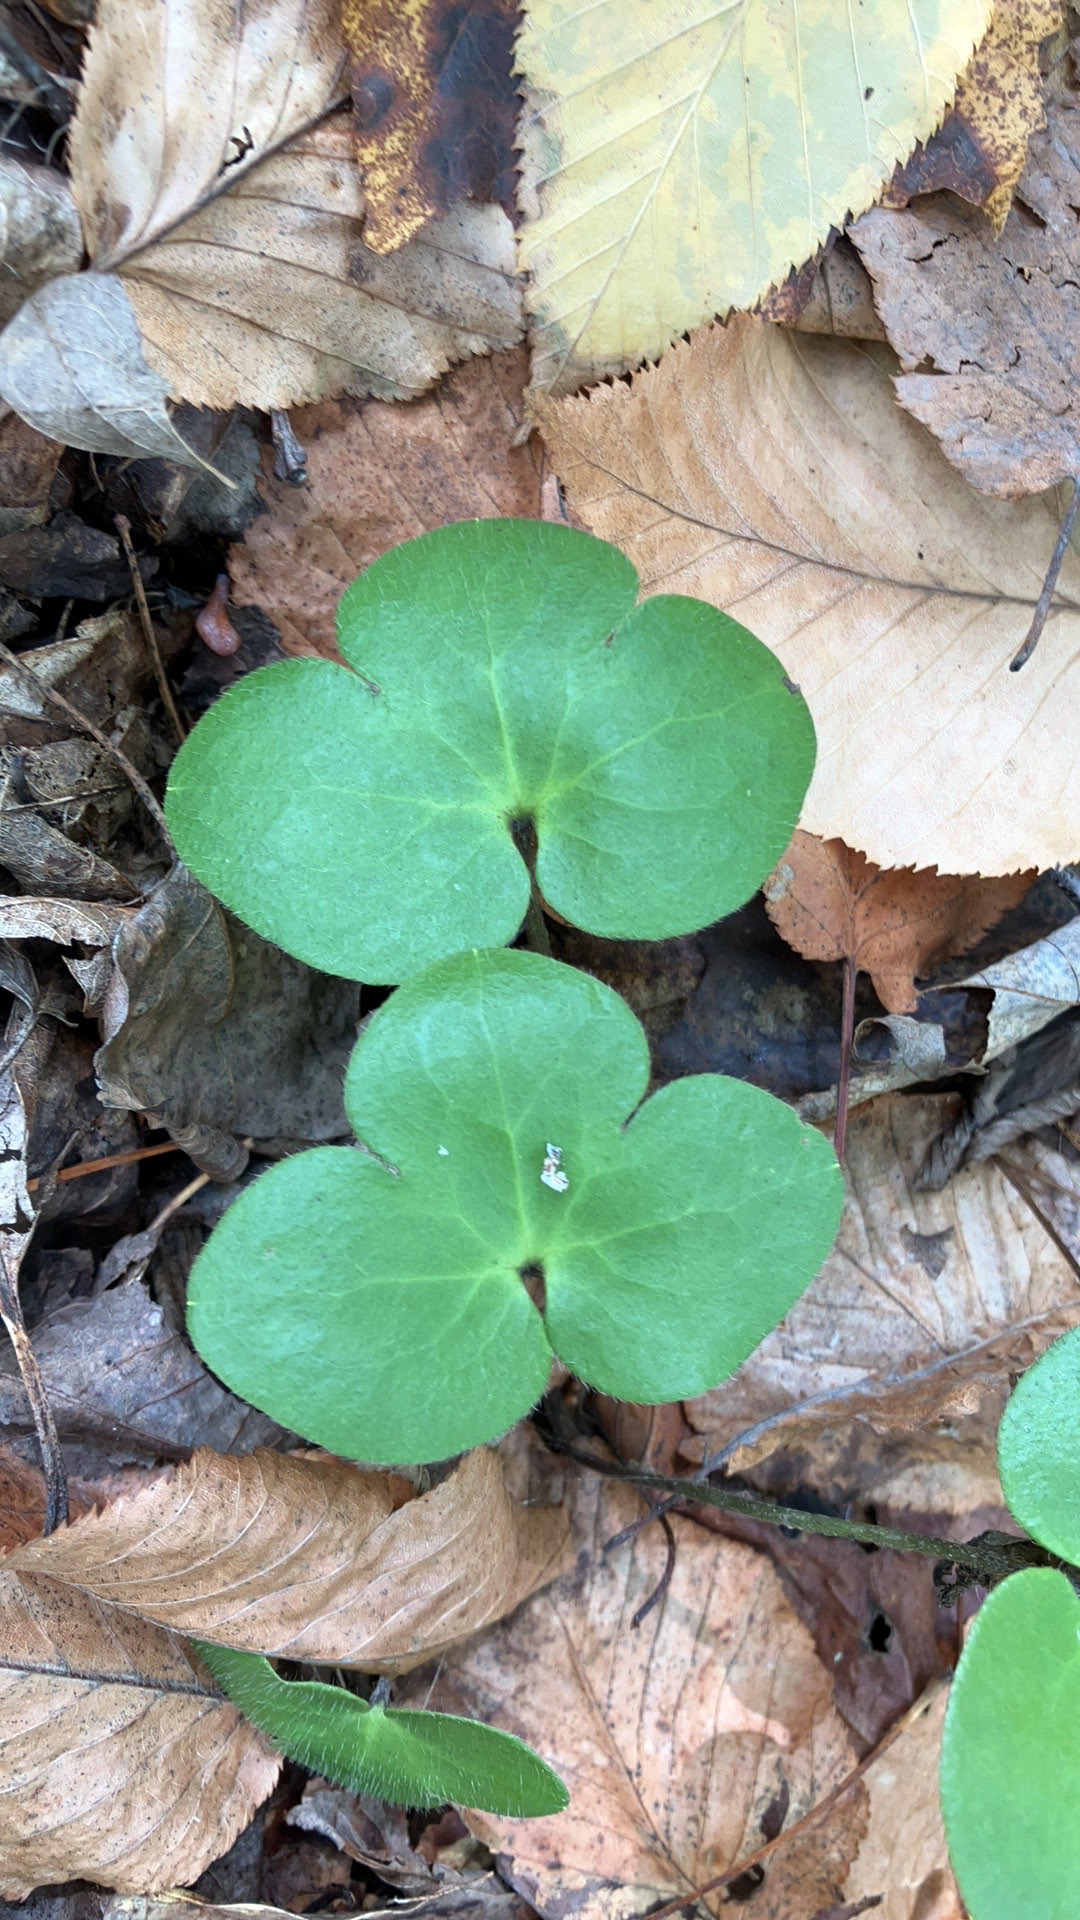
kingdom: Plantae
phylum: Tracheophyta
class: Magnoliopsida
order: Ranunculales
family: Ranunculaceae
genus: Hepatica
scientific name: Hepatica americana
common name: American hepatica
